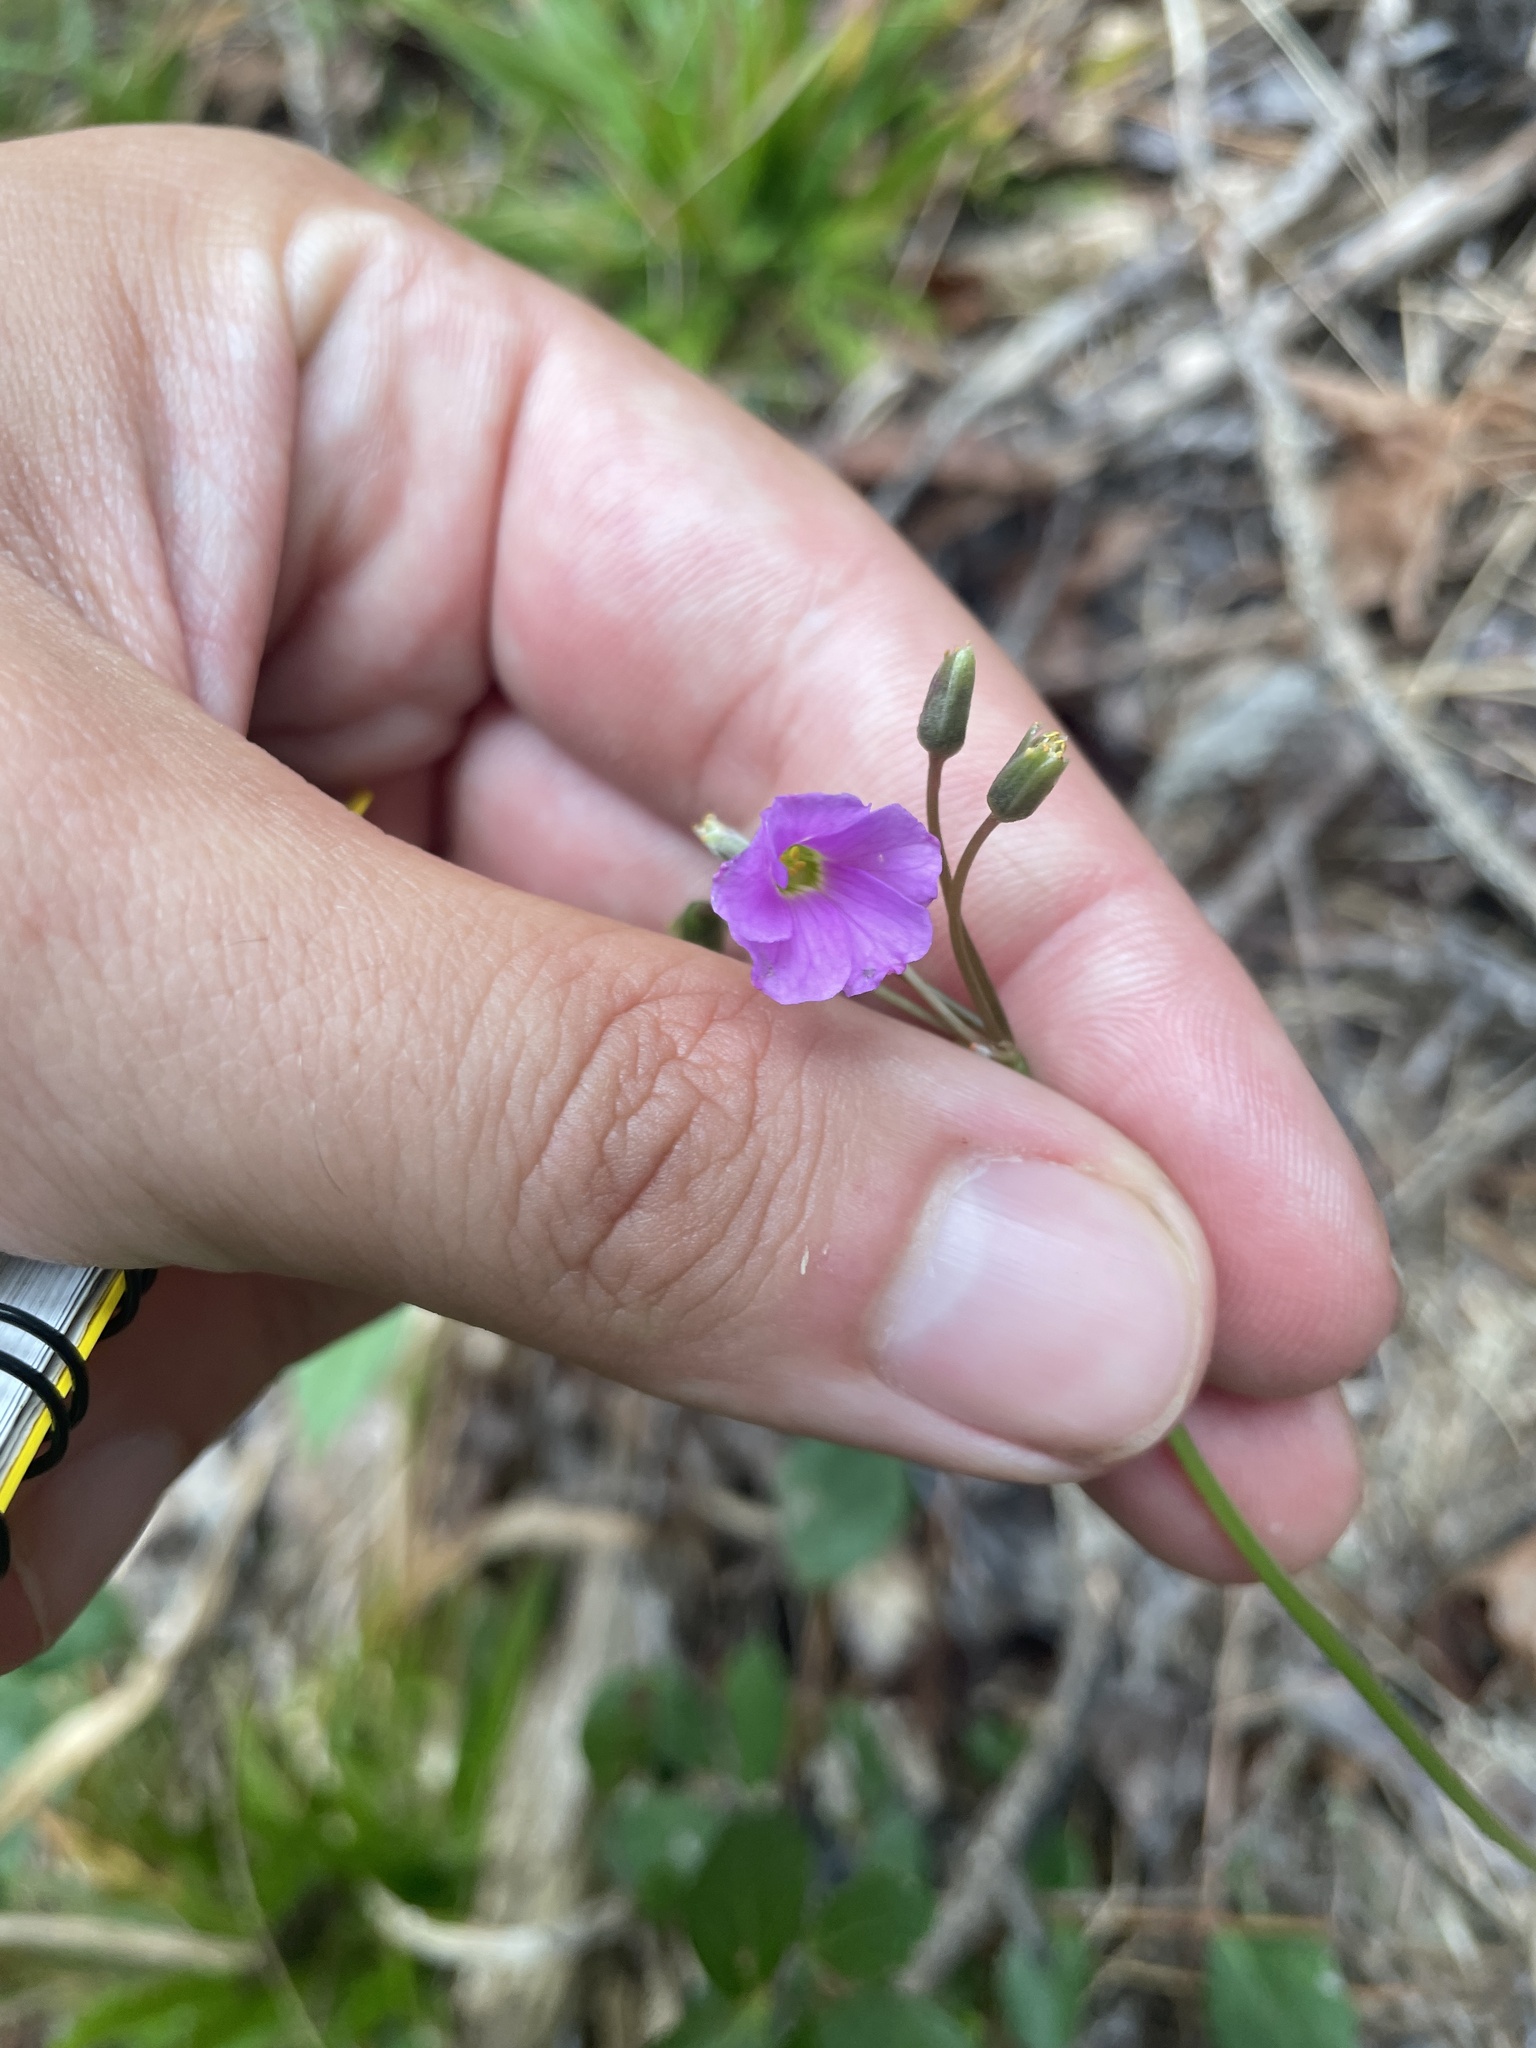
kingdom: Plantae
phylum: Tracheophyta
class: Magnoliopsida
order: Oxalidales
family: Oxalidaceae
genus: Oxalis
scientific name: Oxalis violacea
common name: Violet wood-sorrel
